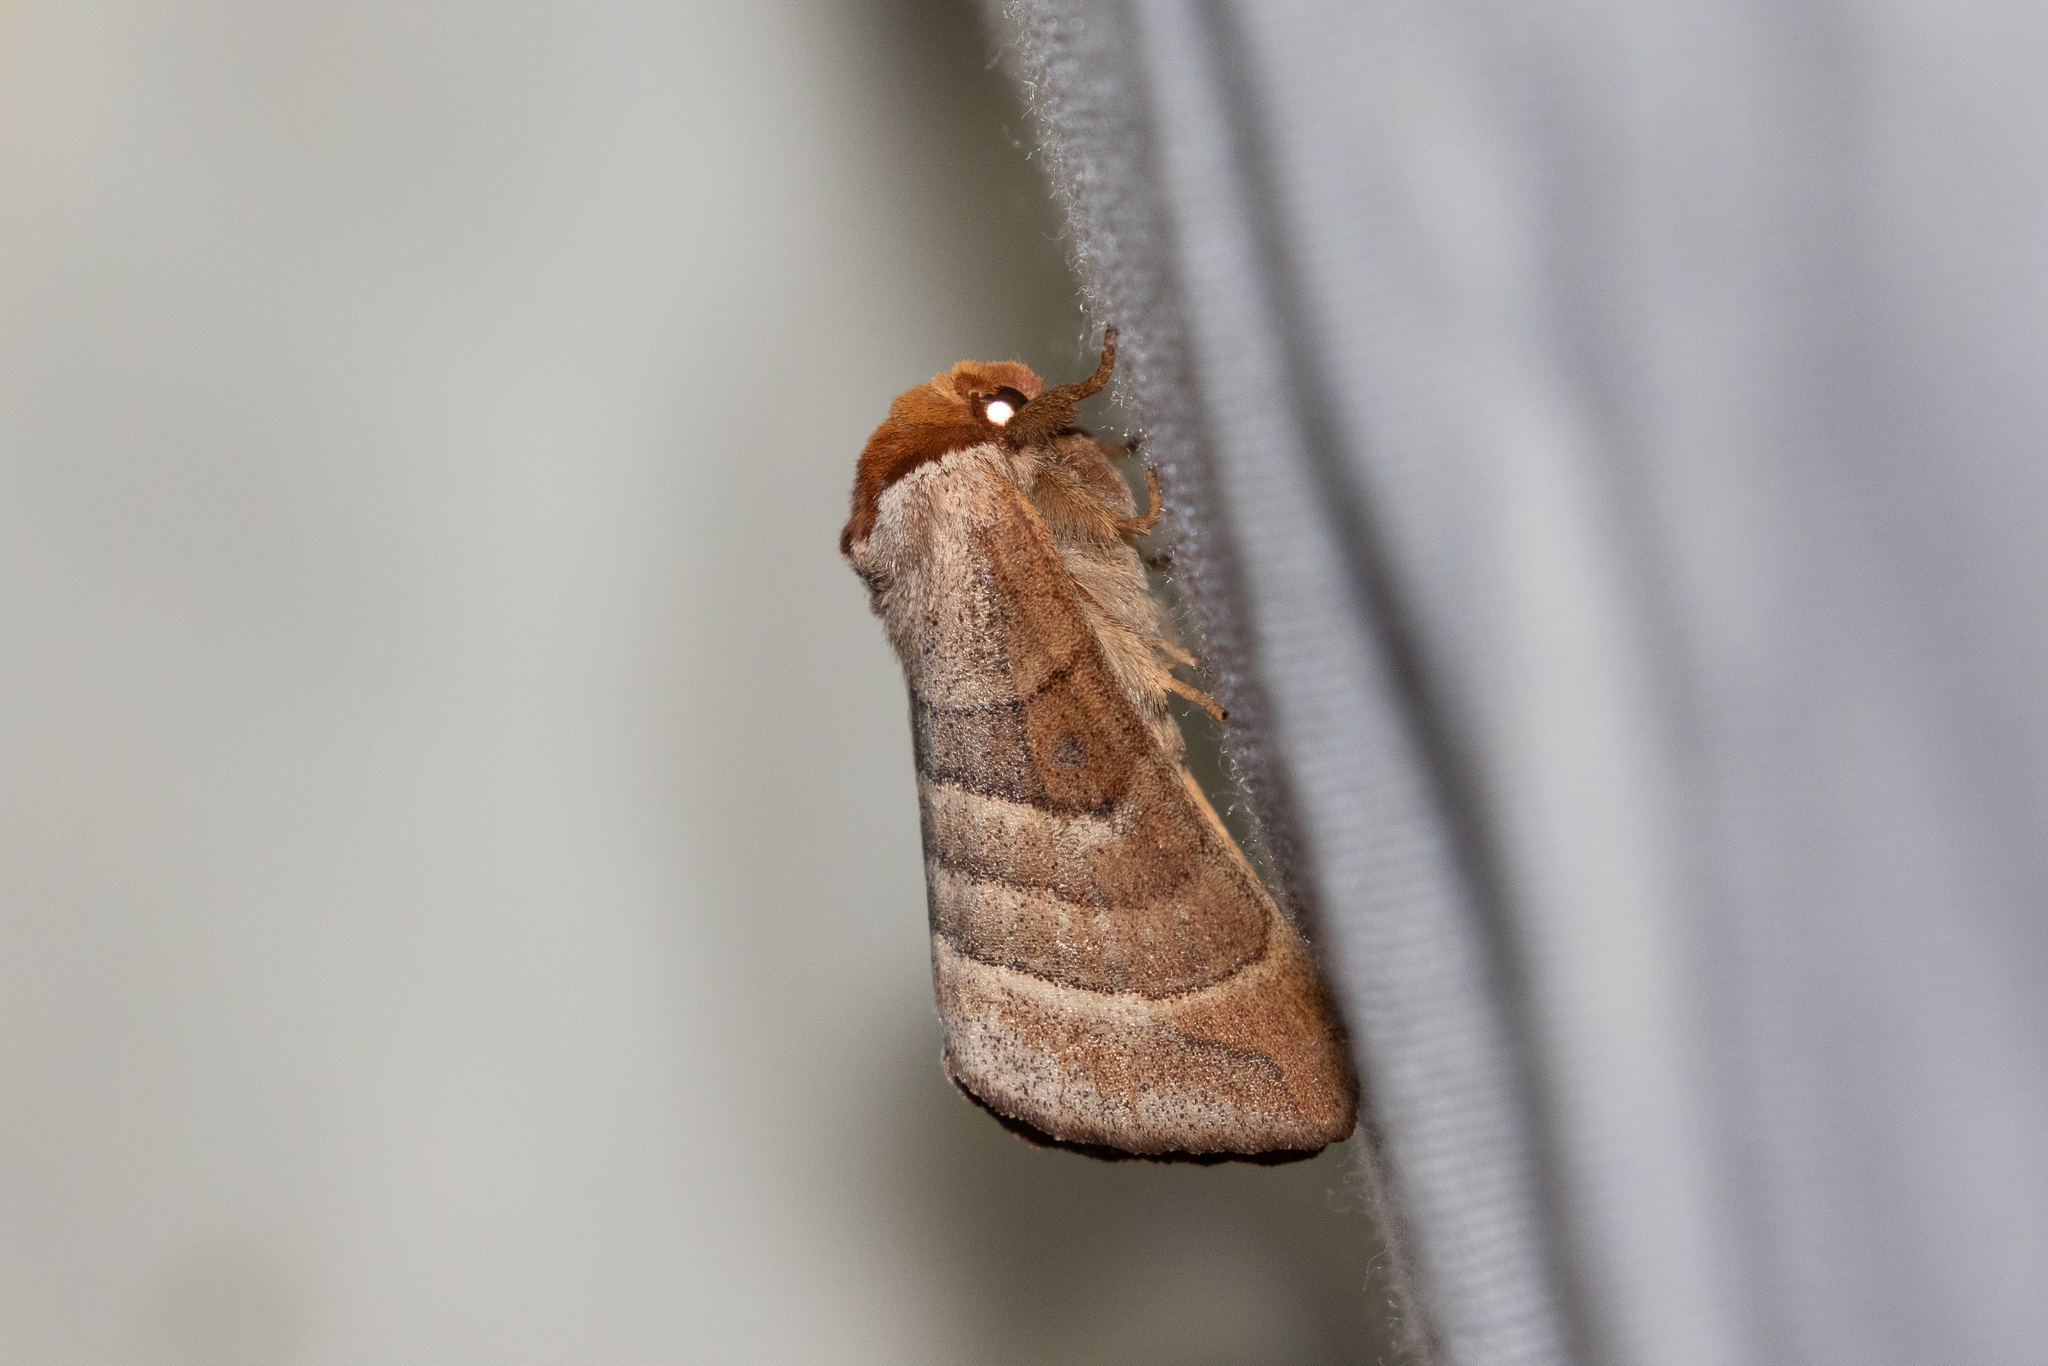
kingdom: Animalia
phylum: Arthropoda
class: Insecta
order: Lepidoptera
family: Notodontidae
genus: Datana
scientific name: Datana integerrima
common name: Walnut caterpillar
